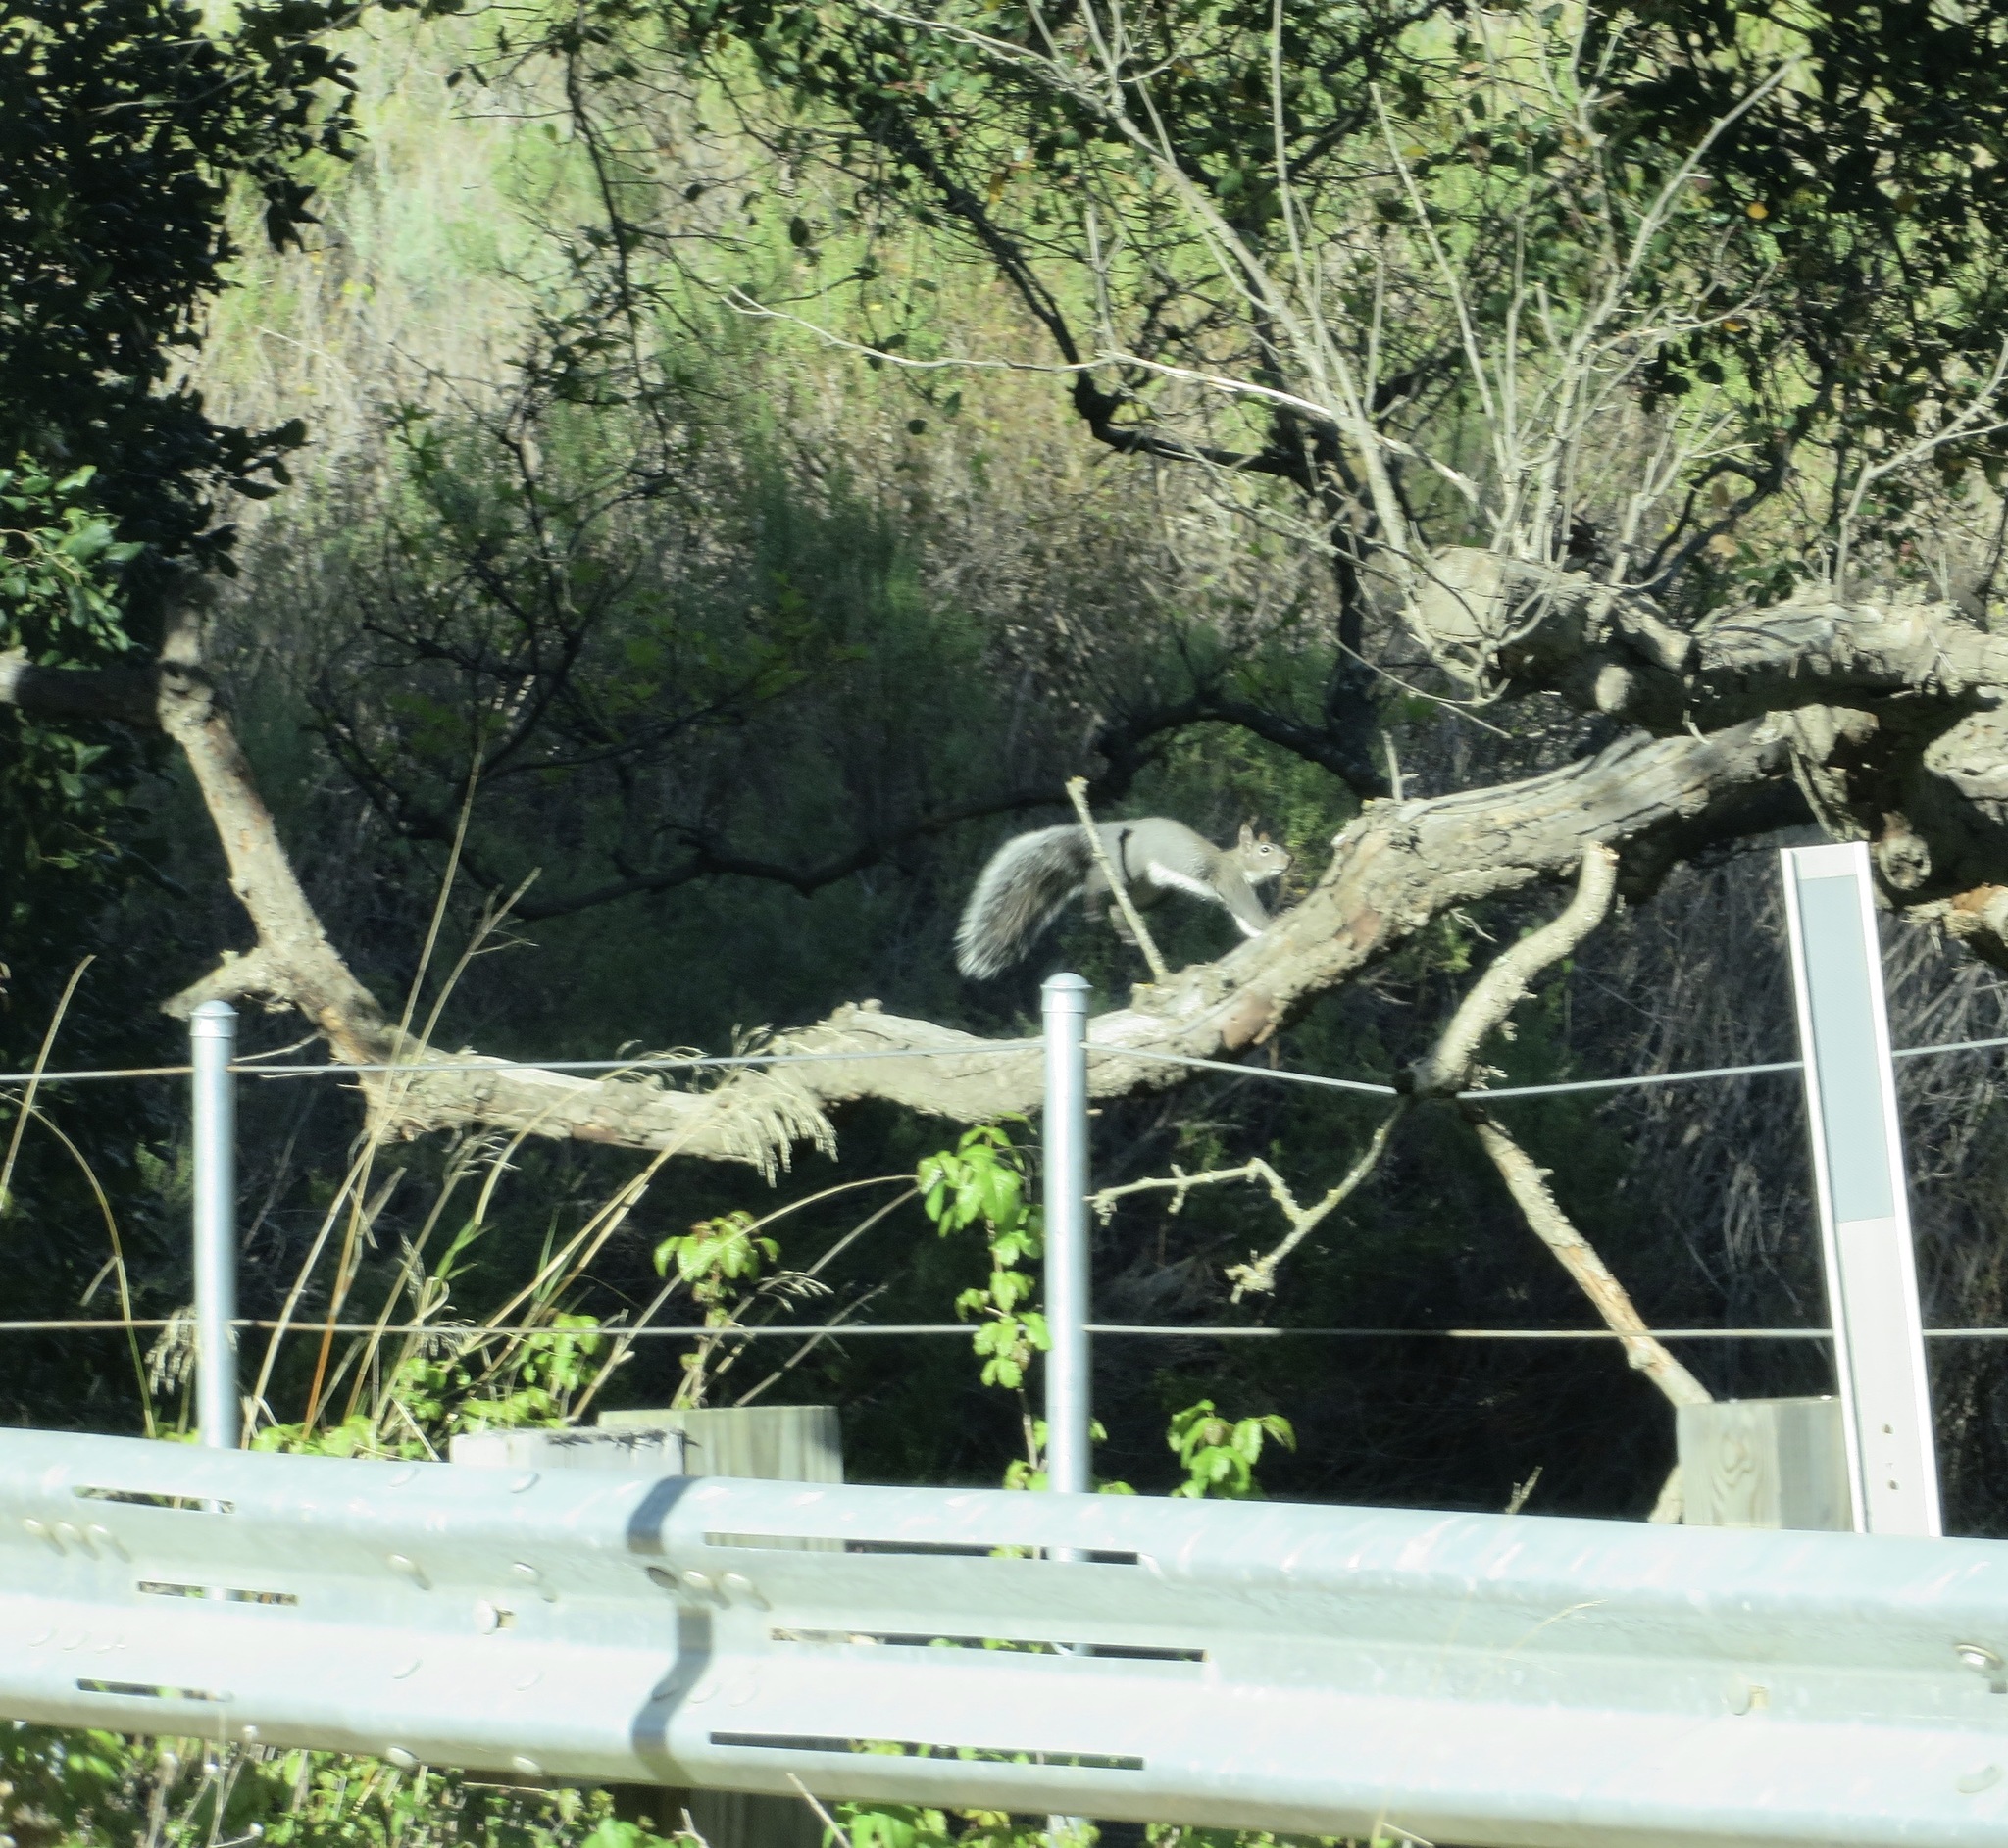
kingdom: Animalia
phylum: Chordata
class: Mammalia
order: Rodentia
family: Sciuridae
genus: Sciurus
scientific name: Sciurus griseus
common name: Western gray squirrel
